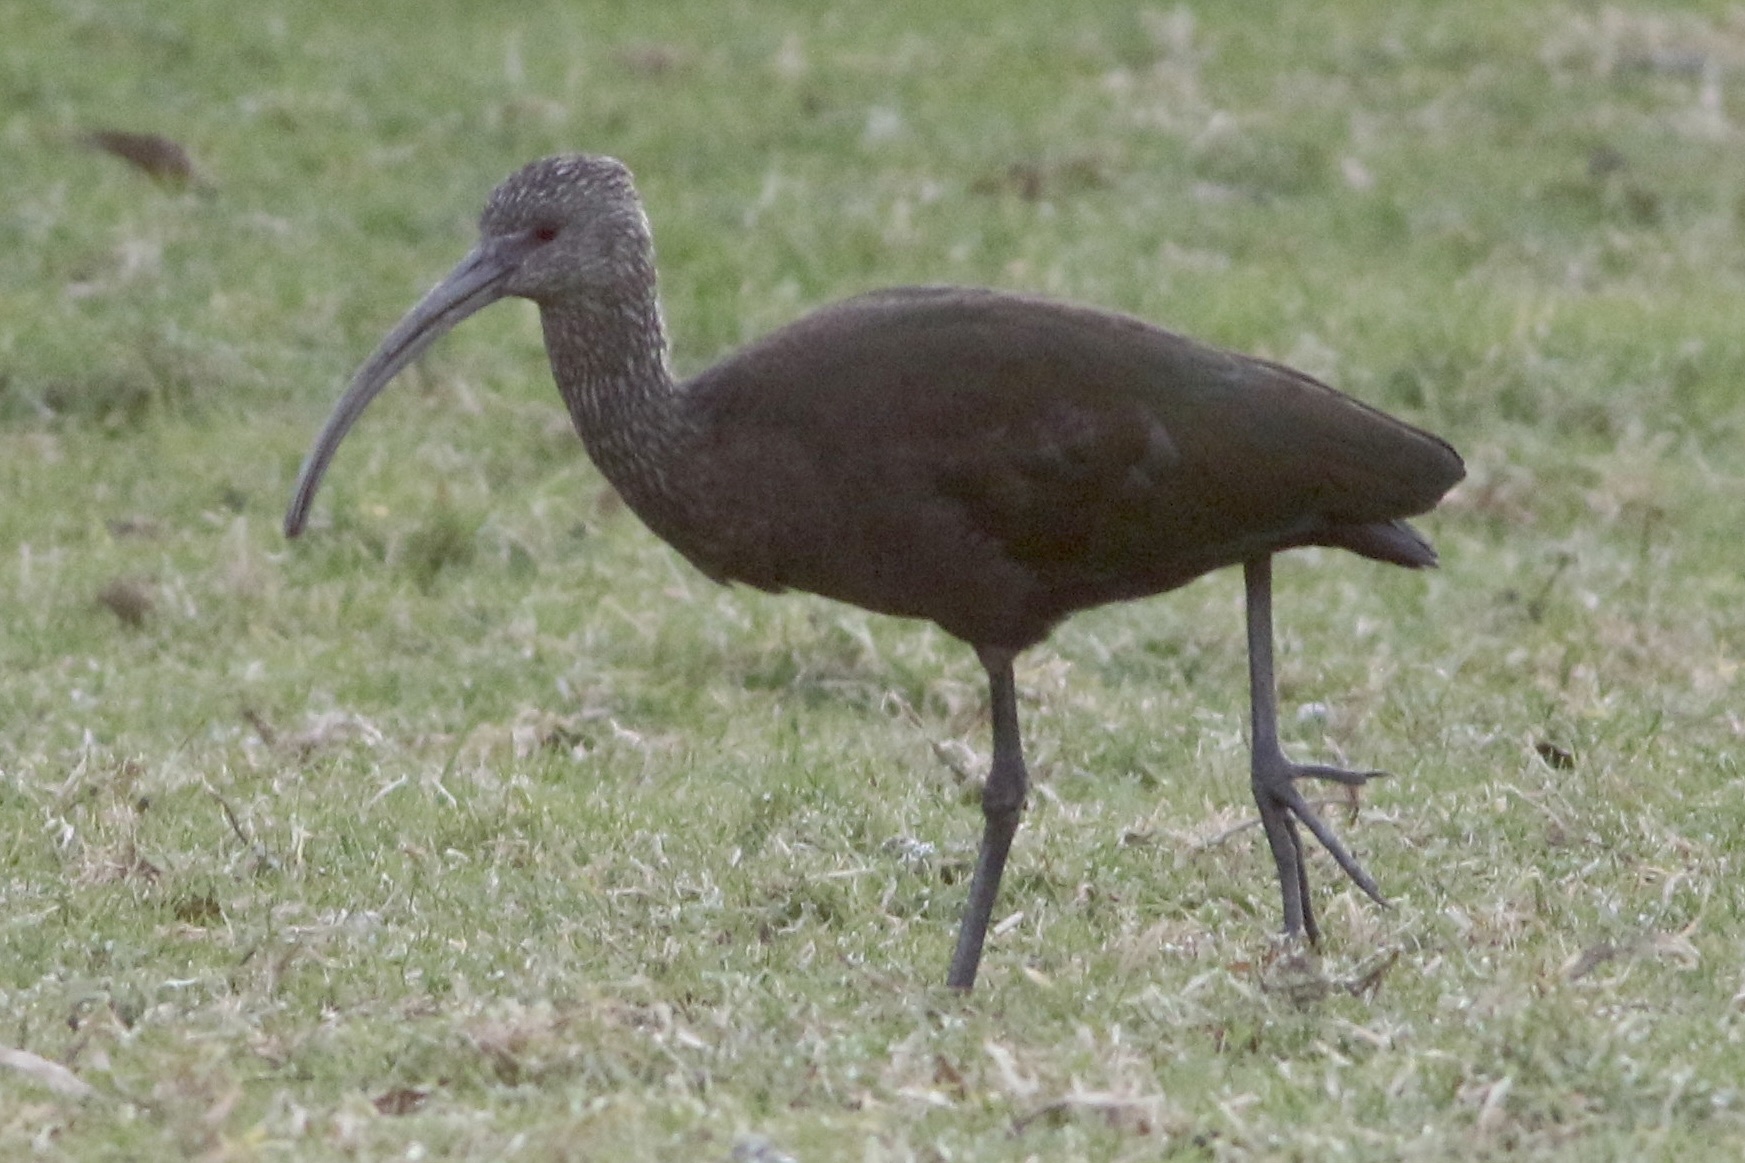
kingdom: Animalia
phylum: Chordata
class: Aves
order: Pelecaniformes
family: Threskiornithidae
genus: Plegadis
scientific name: Plegadis chihi
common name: White-faced ibis
